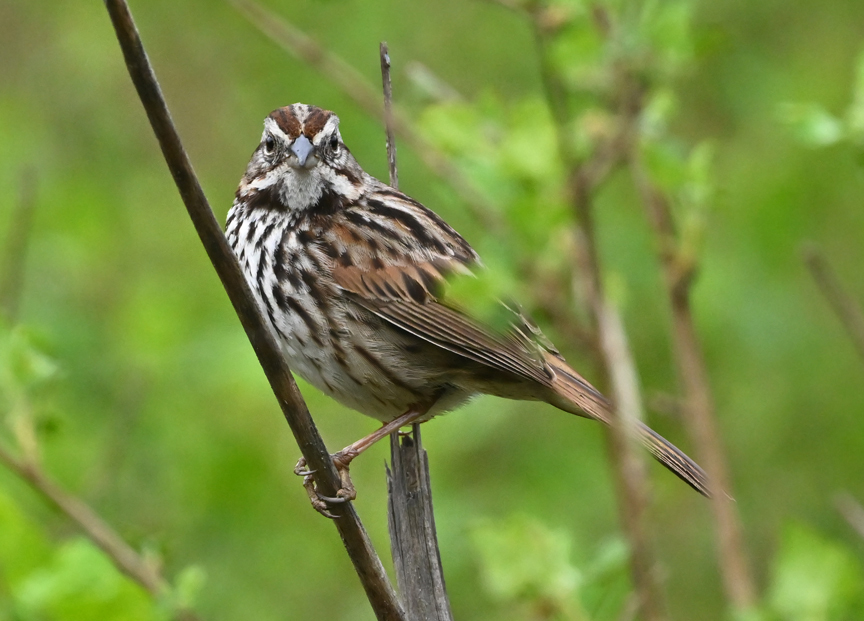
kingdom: Animalia
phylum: Chordata
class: Aves
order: Passeriformes
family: Passerellidae
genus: Melospiza
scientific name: Melospiza melodia
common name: Song sparrow
